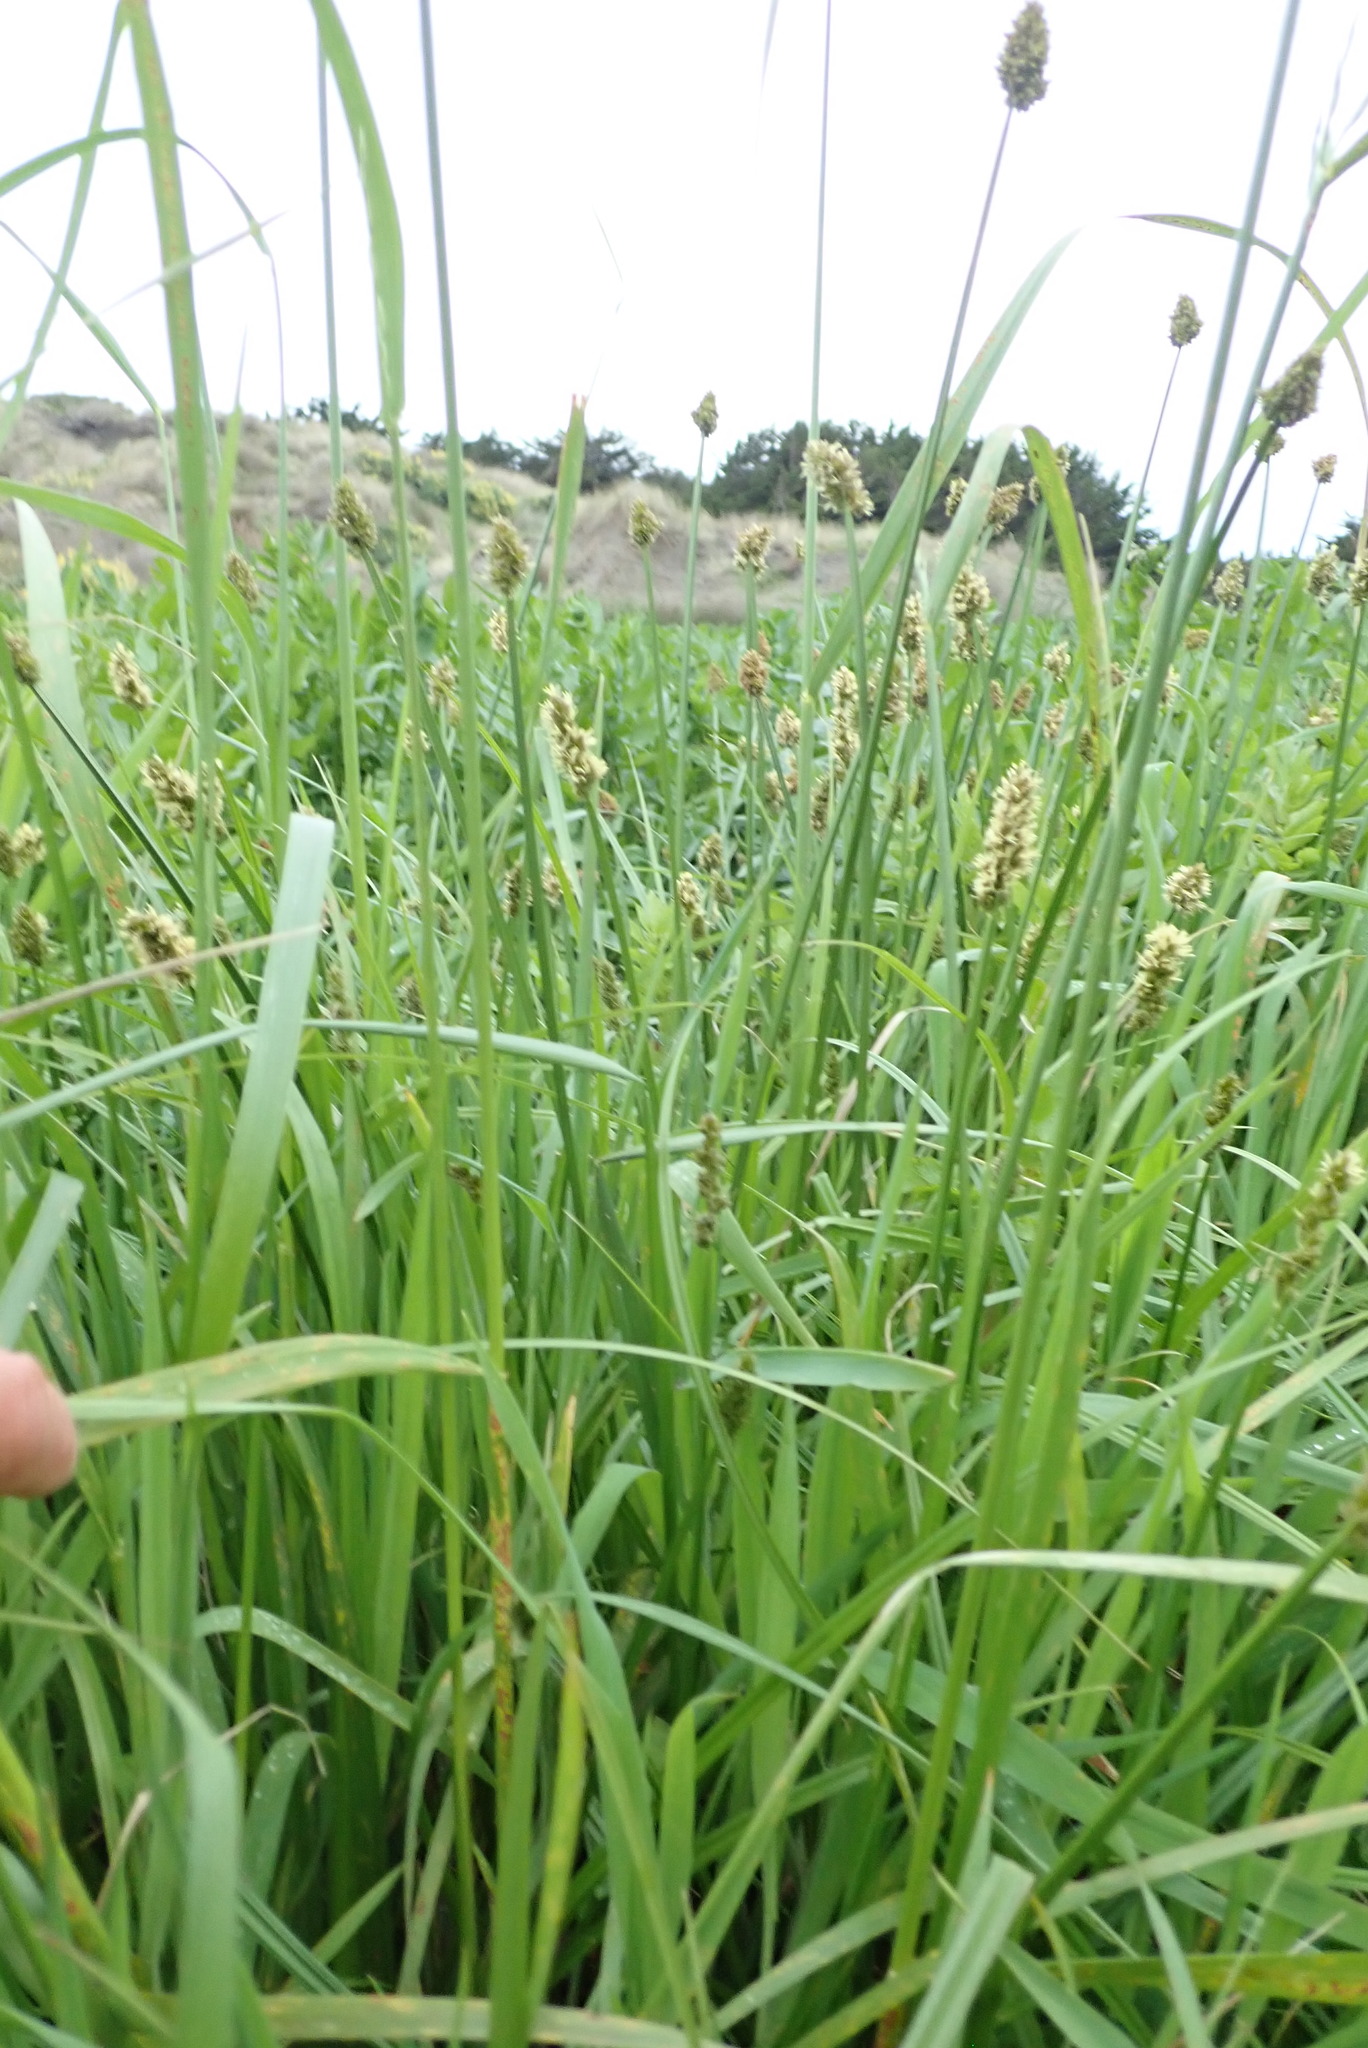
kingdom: Plantae
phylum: Tracheophyta
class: Liliopsida
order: Poales
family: Cyperaceae
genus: Bolboschoenus
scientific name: Bolboschoenus caldwellii
